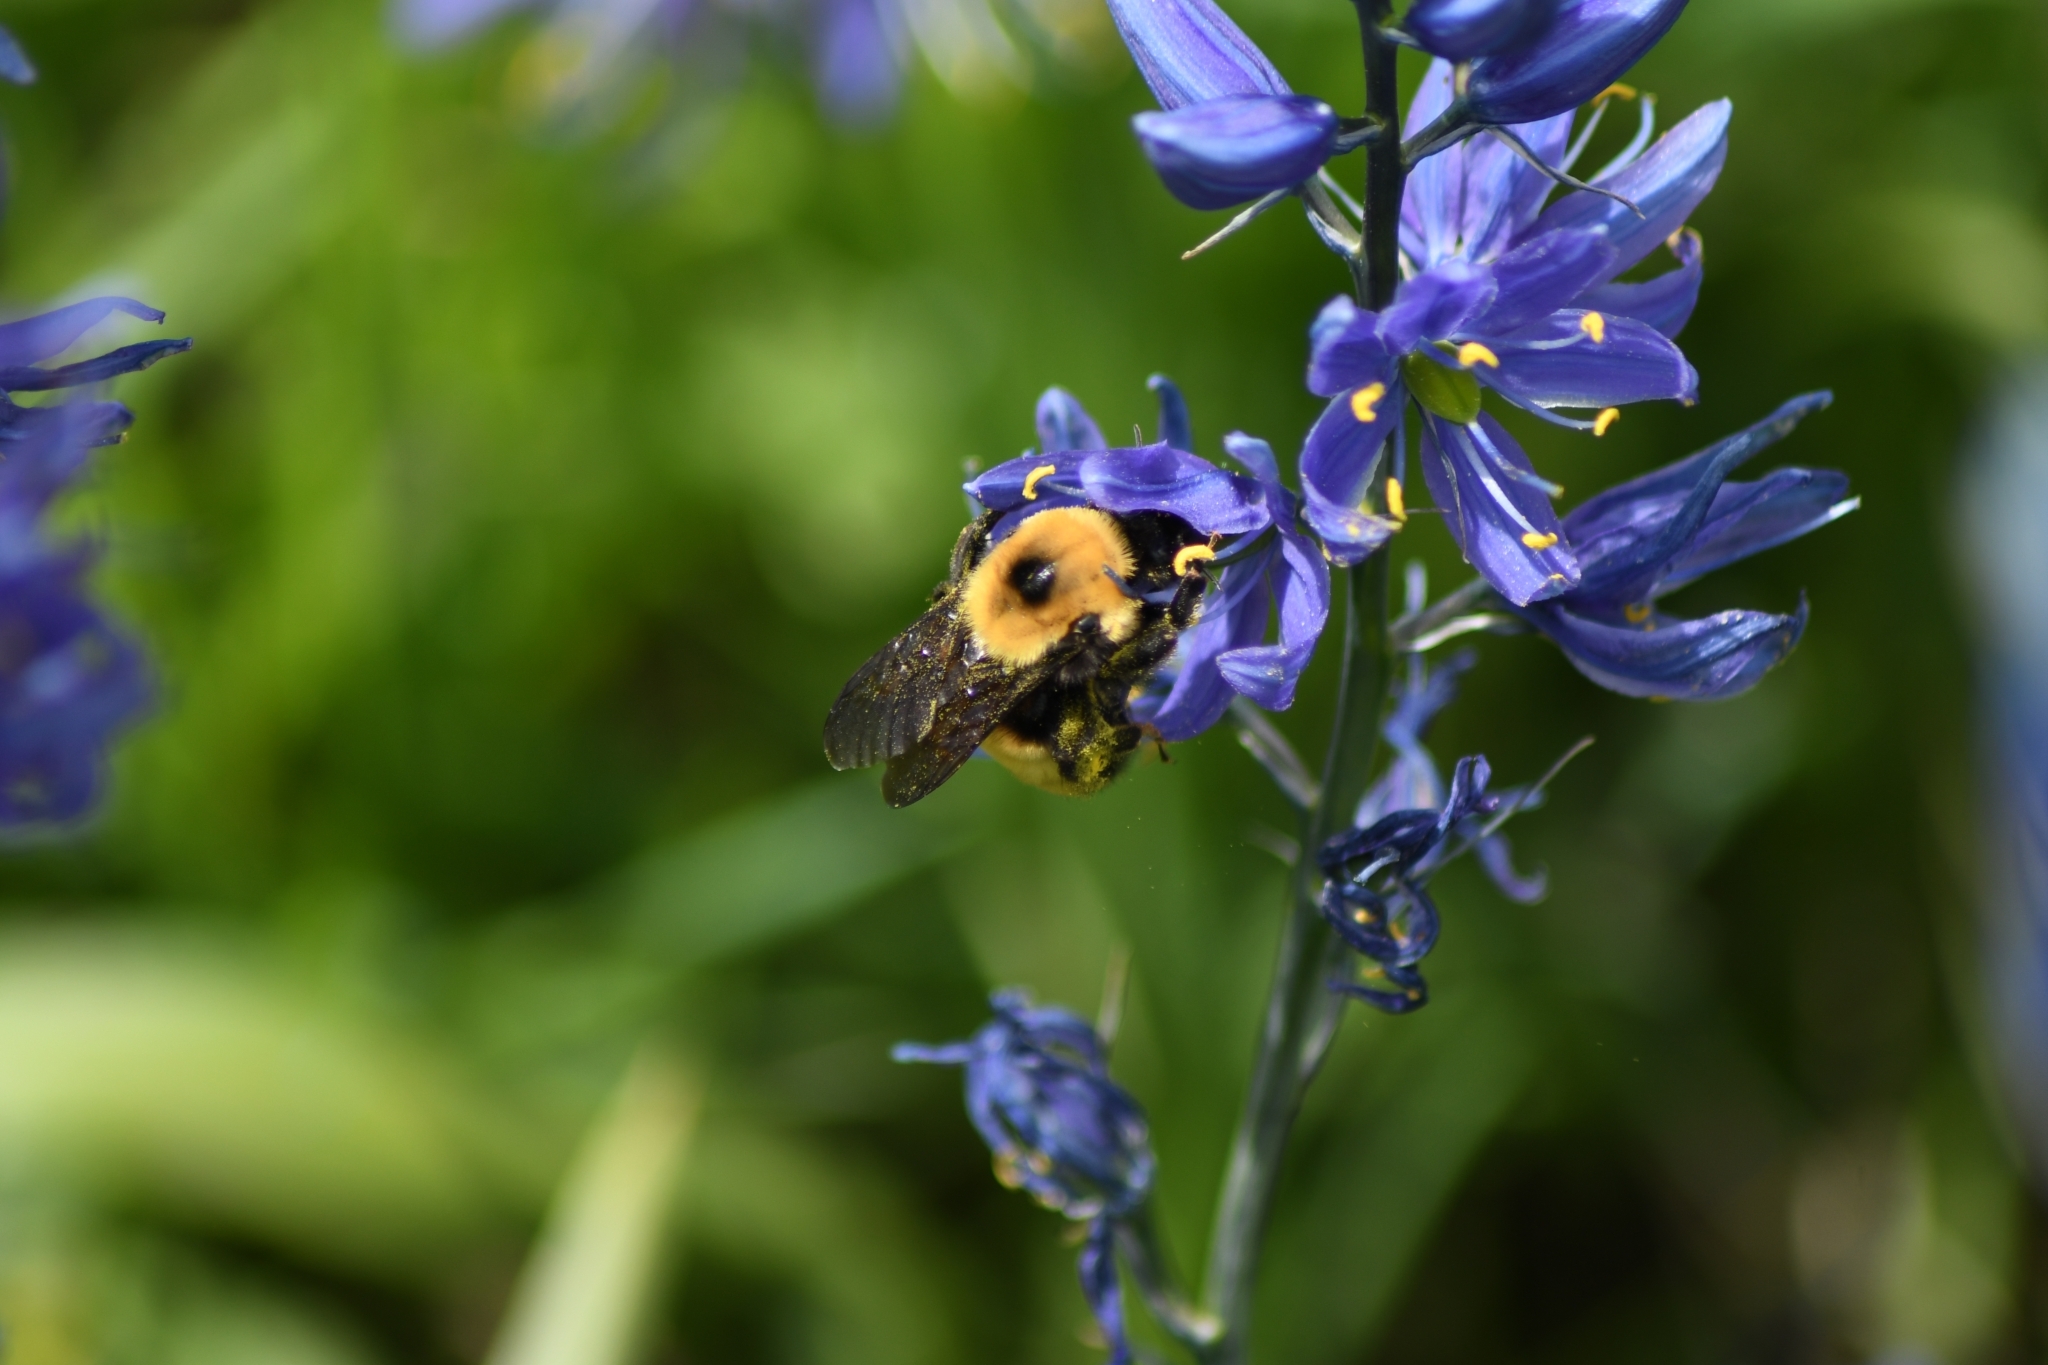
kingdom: Animalia
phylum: Arthropoda
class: Insecta
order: Hymenoptera
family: Apidae
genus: Bombus
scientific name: Bombus nevadensis
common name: Nevada bumble bee
